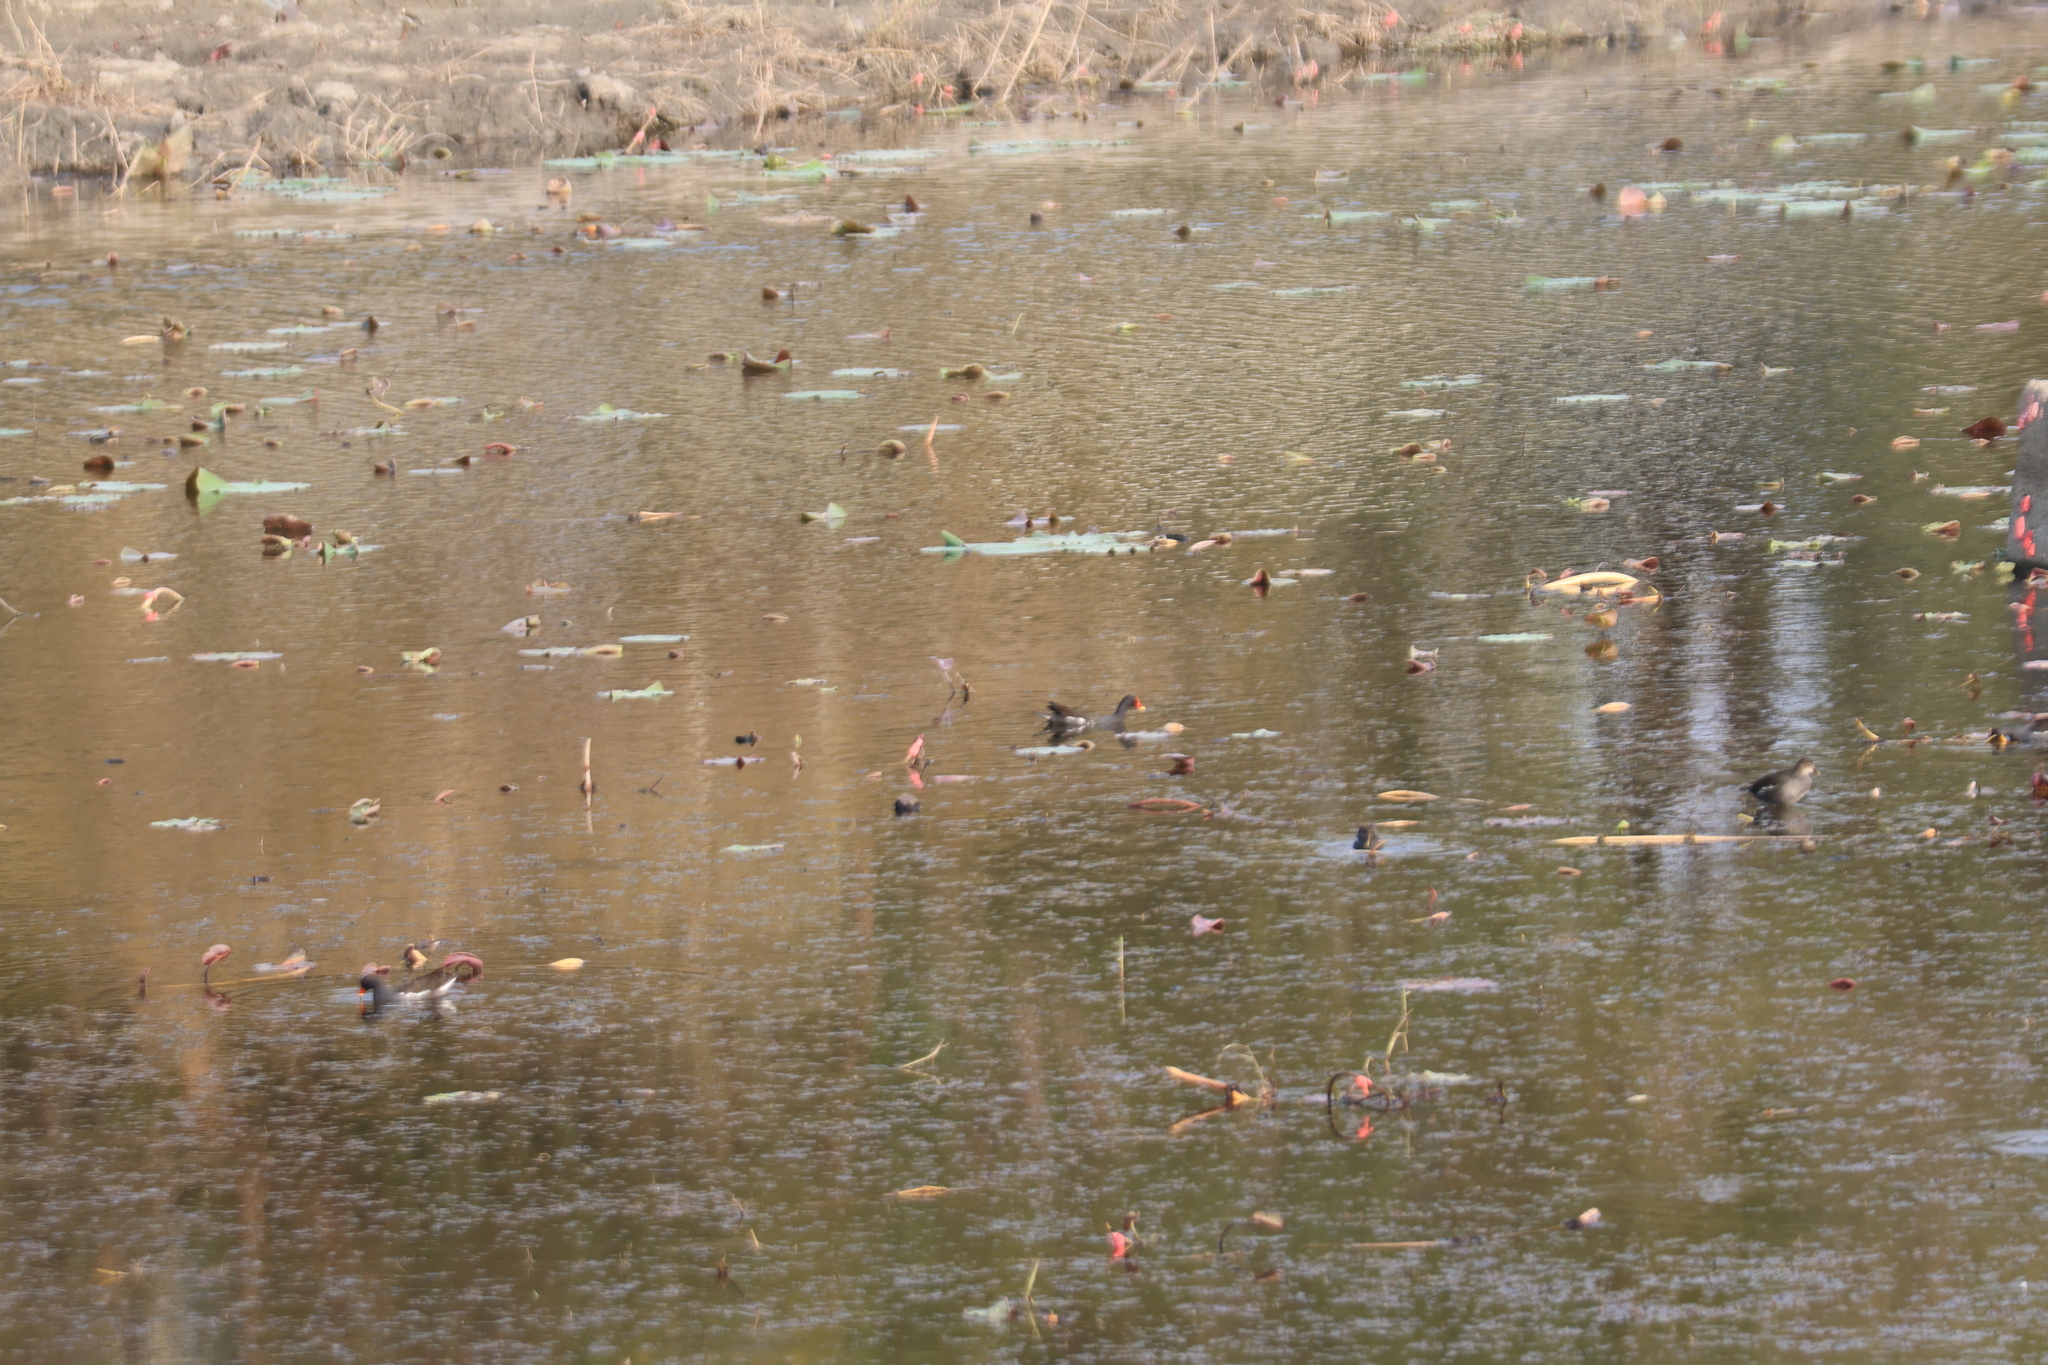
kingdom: Animalia
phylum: Chordata
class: Aves
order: Gruiformes
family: Rallidae
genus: Gallinula
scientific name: Gallinula chloropus
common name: Common moorhen
